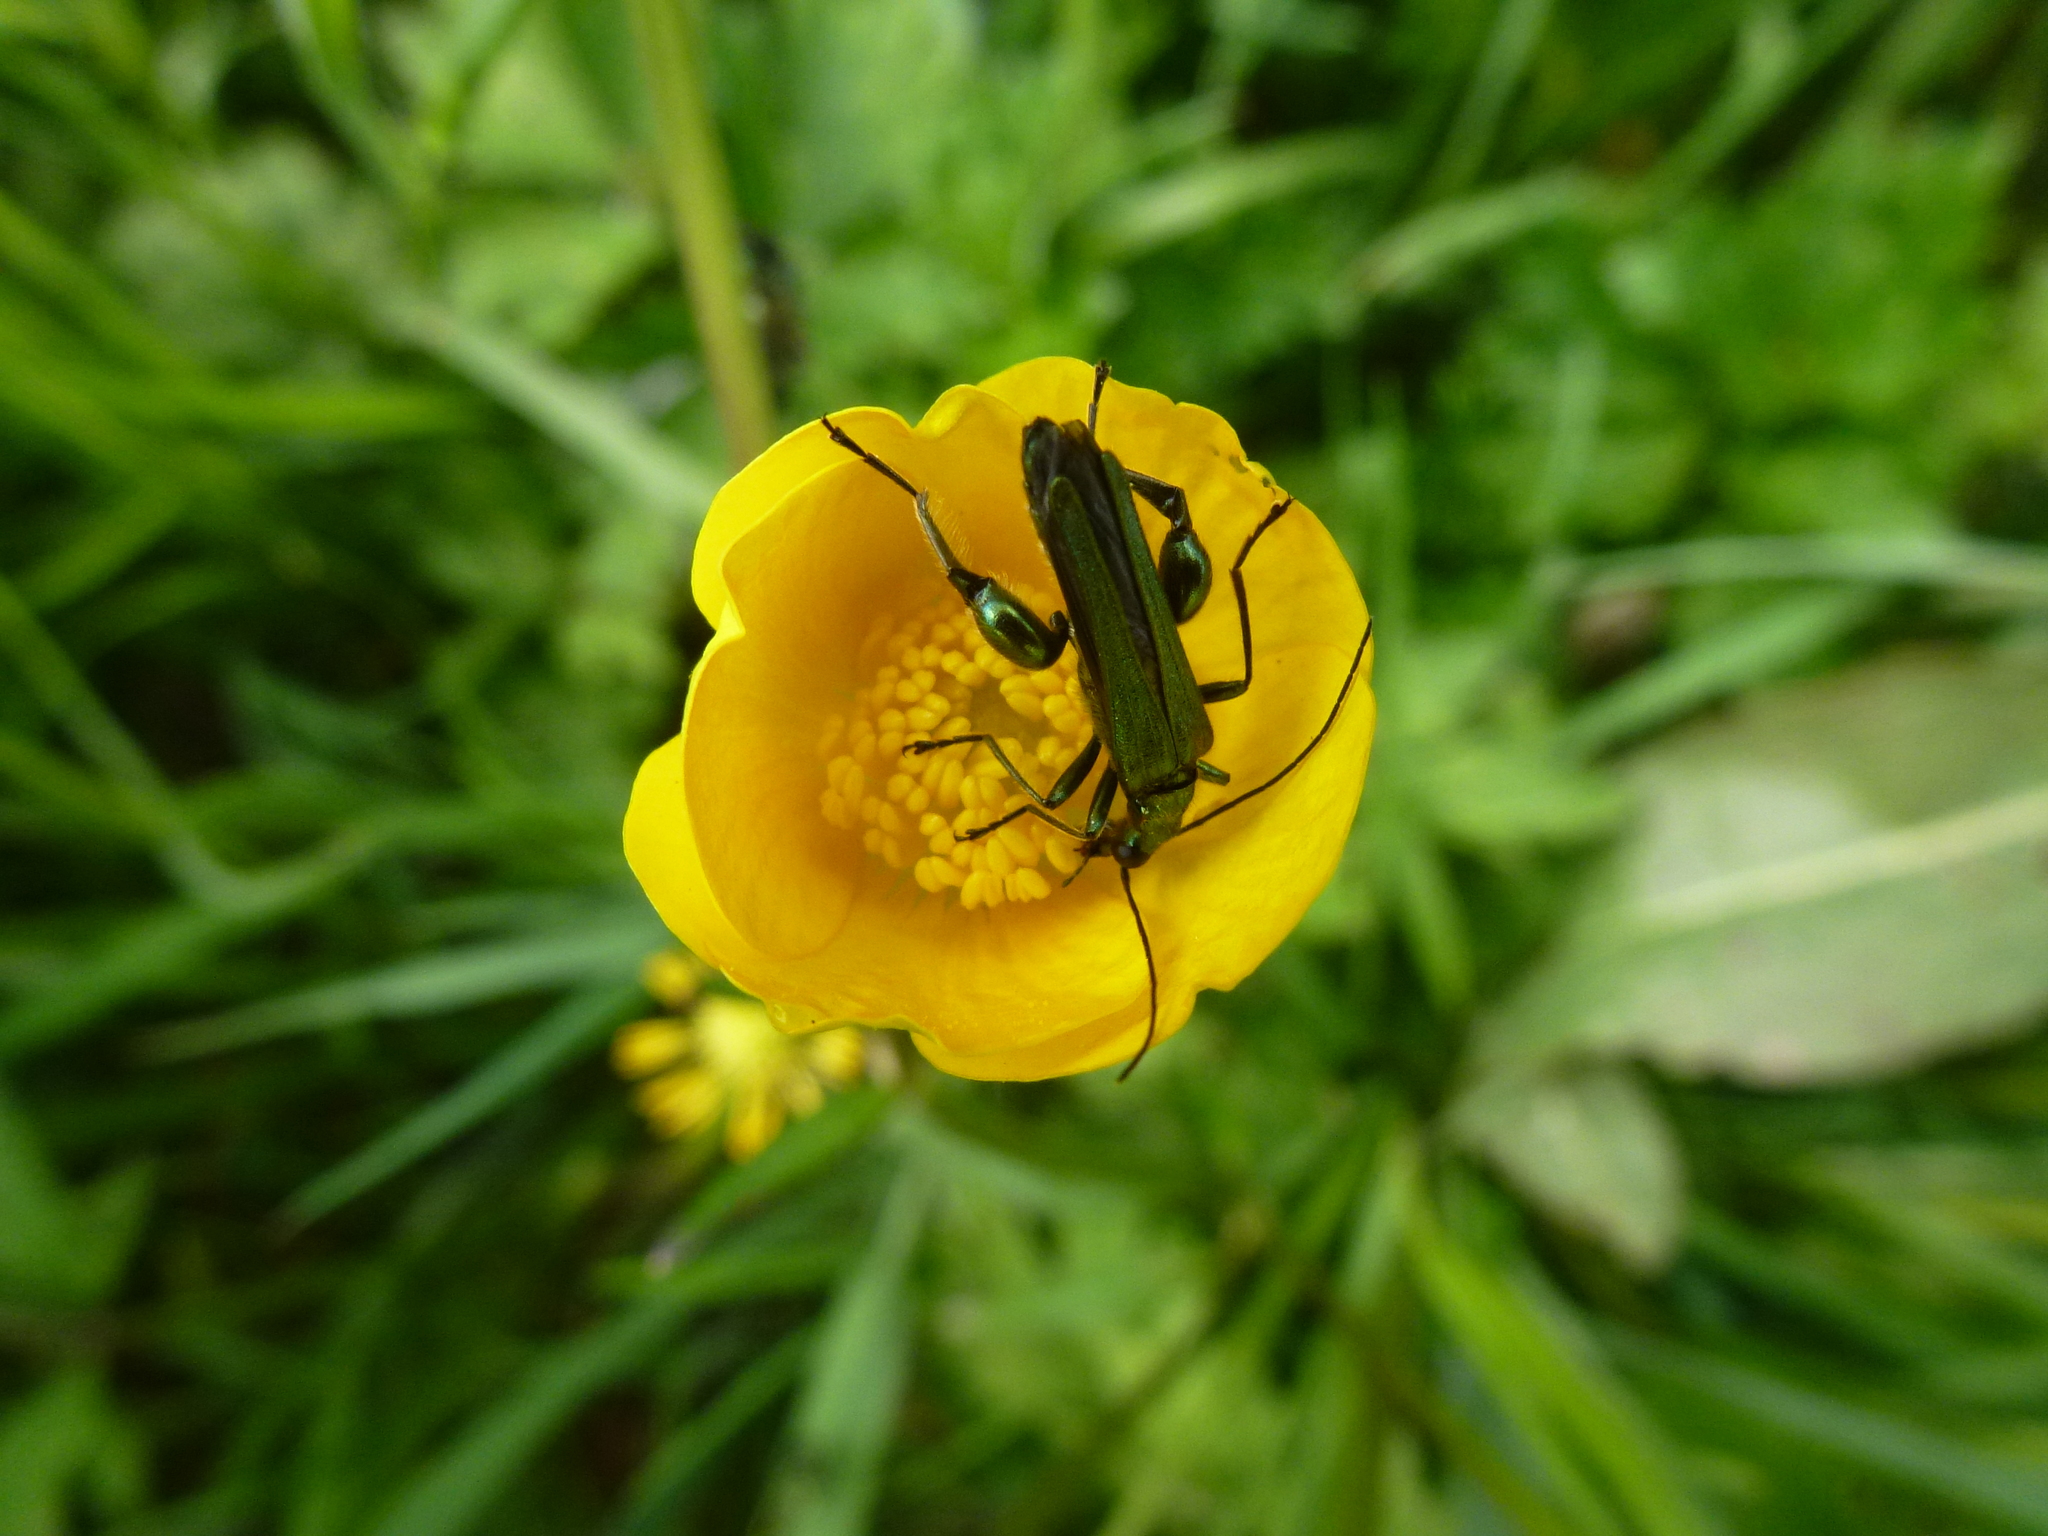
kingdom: Animalia
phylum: Arthropoda
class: Insecta
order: Coleoptera
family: Oedemeridae
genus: Oedemera
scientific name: Oedemera nobilis
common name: Swollen-thighed beetle
